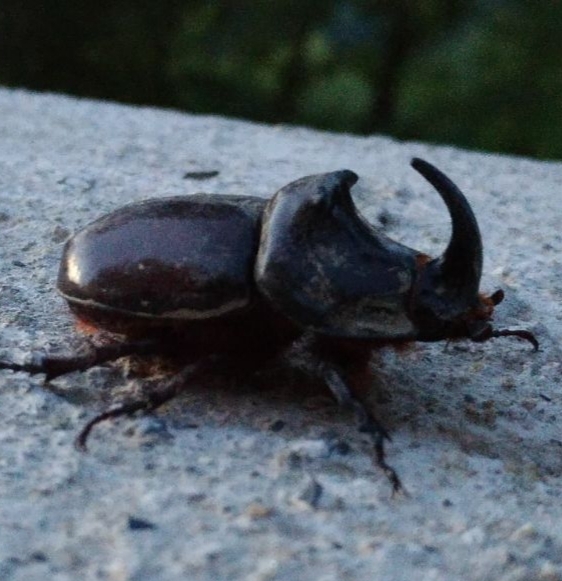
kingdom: Animalia
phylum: Arthropoda
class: Insecta
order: Coleoptera
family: Scarabaeidae
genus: Oryctes
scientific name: Oryctes nasicornis
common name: European rhinoceros beetle
